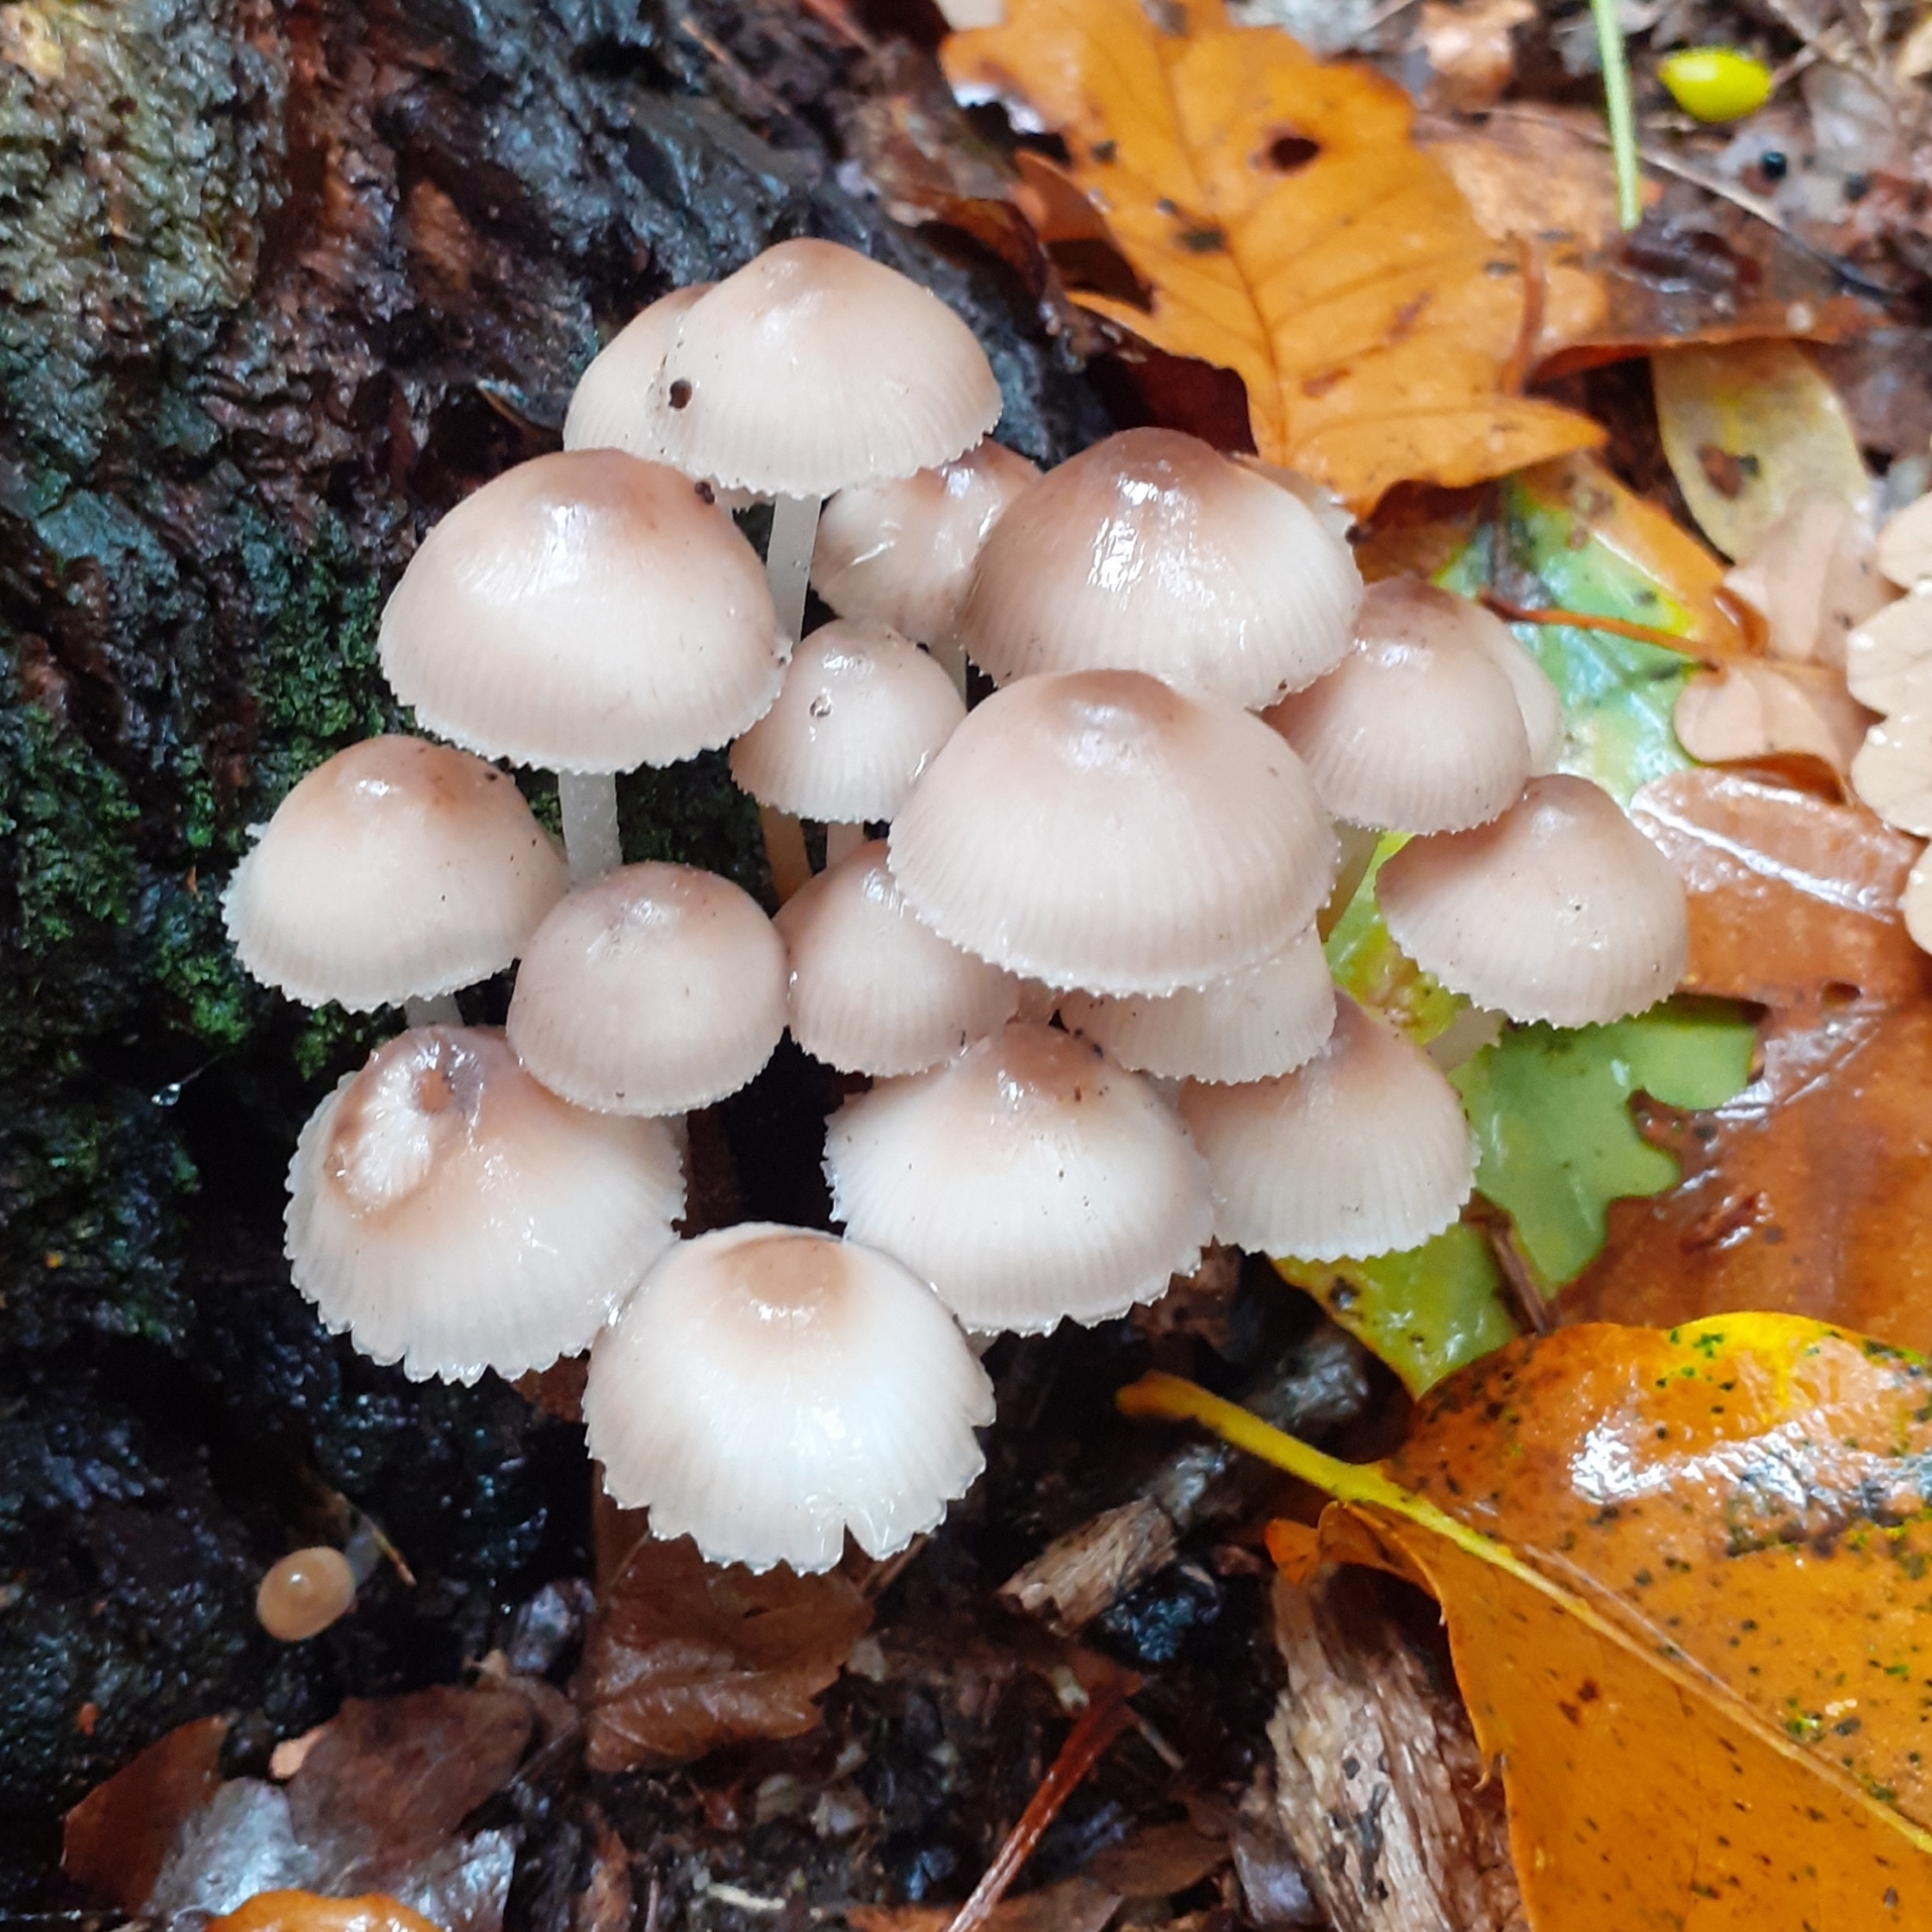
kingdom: Fungi
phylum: Basidiomycota
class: Agaricomycetes
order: Agaricales
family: Mycenaceae
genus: Mycena
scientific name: Mycena inclinata
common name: Clustered bonnet
